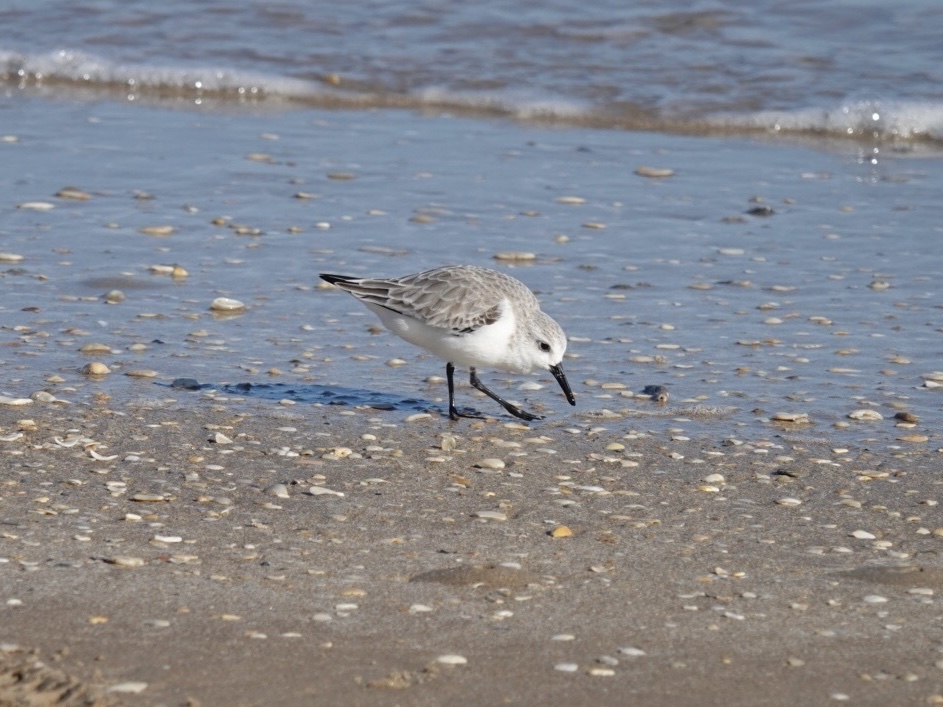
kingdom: Animalia
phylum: Chordata
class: Aves
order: Charadriiformes
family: Scolopacidae
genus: Calidris
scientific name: Calidris alba
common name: Sanderling
